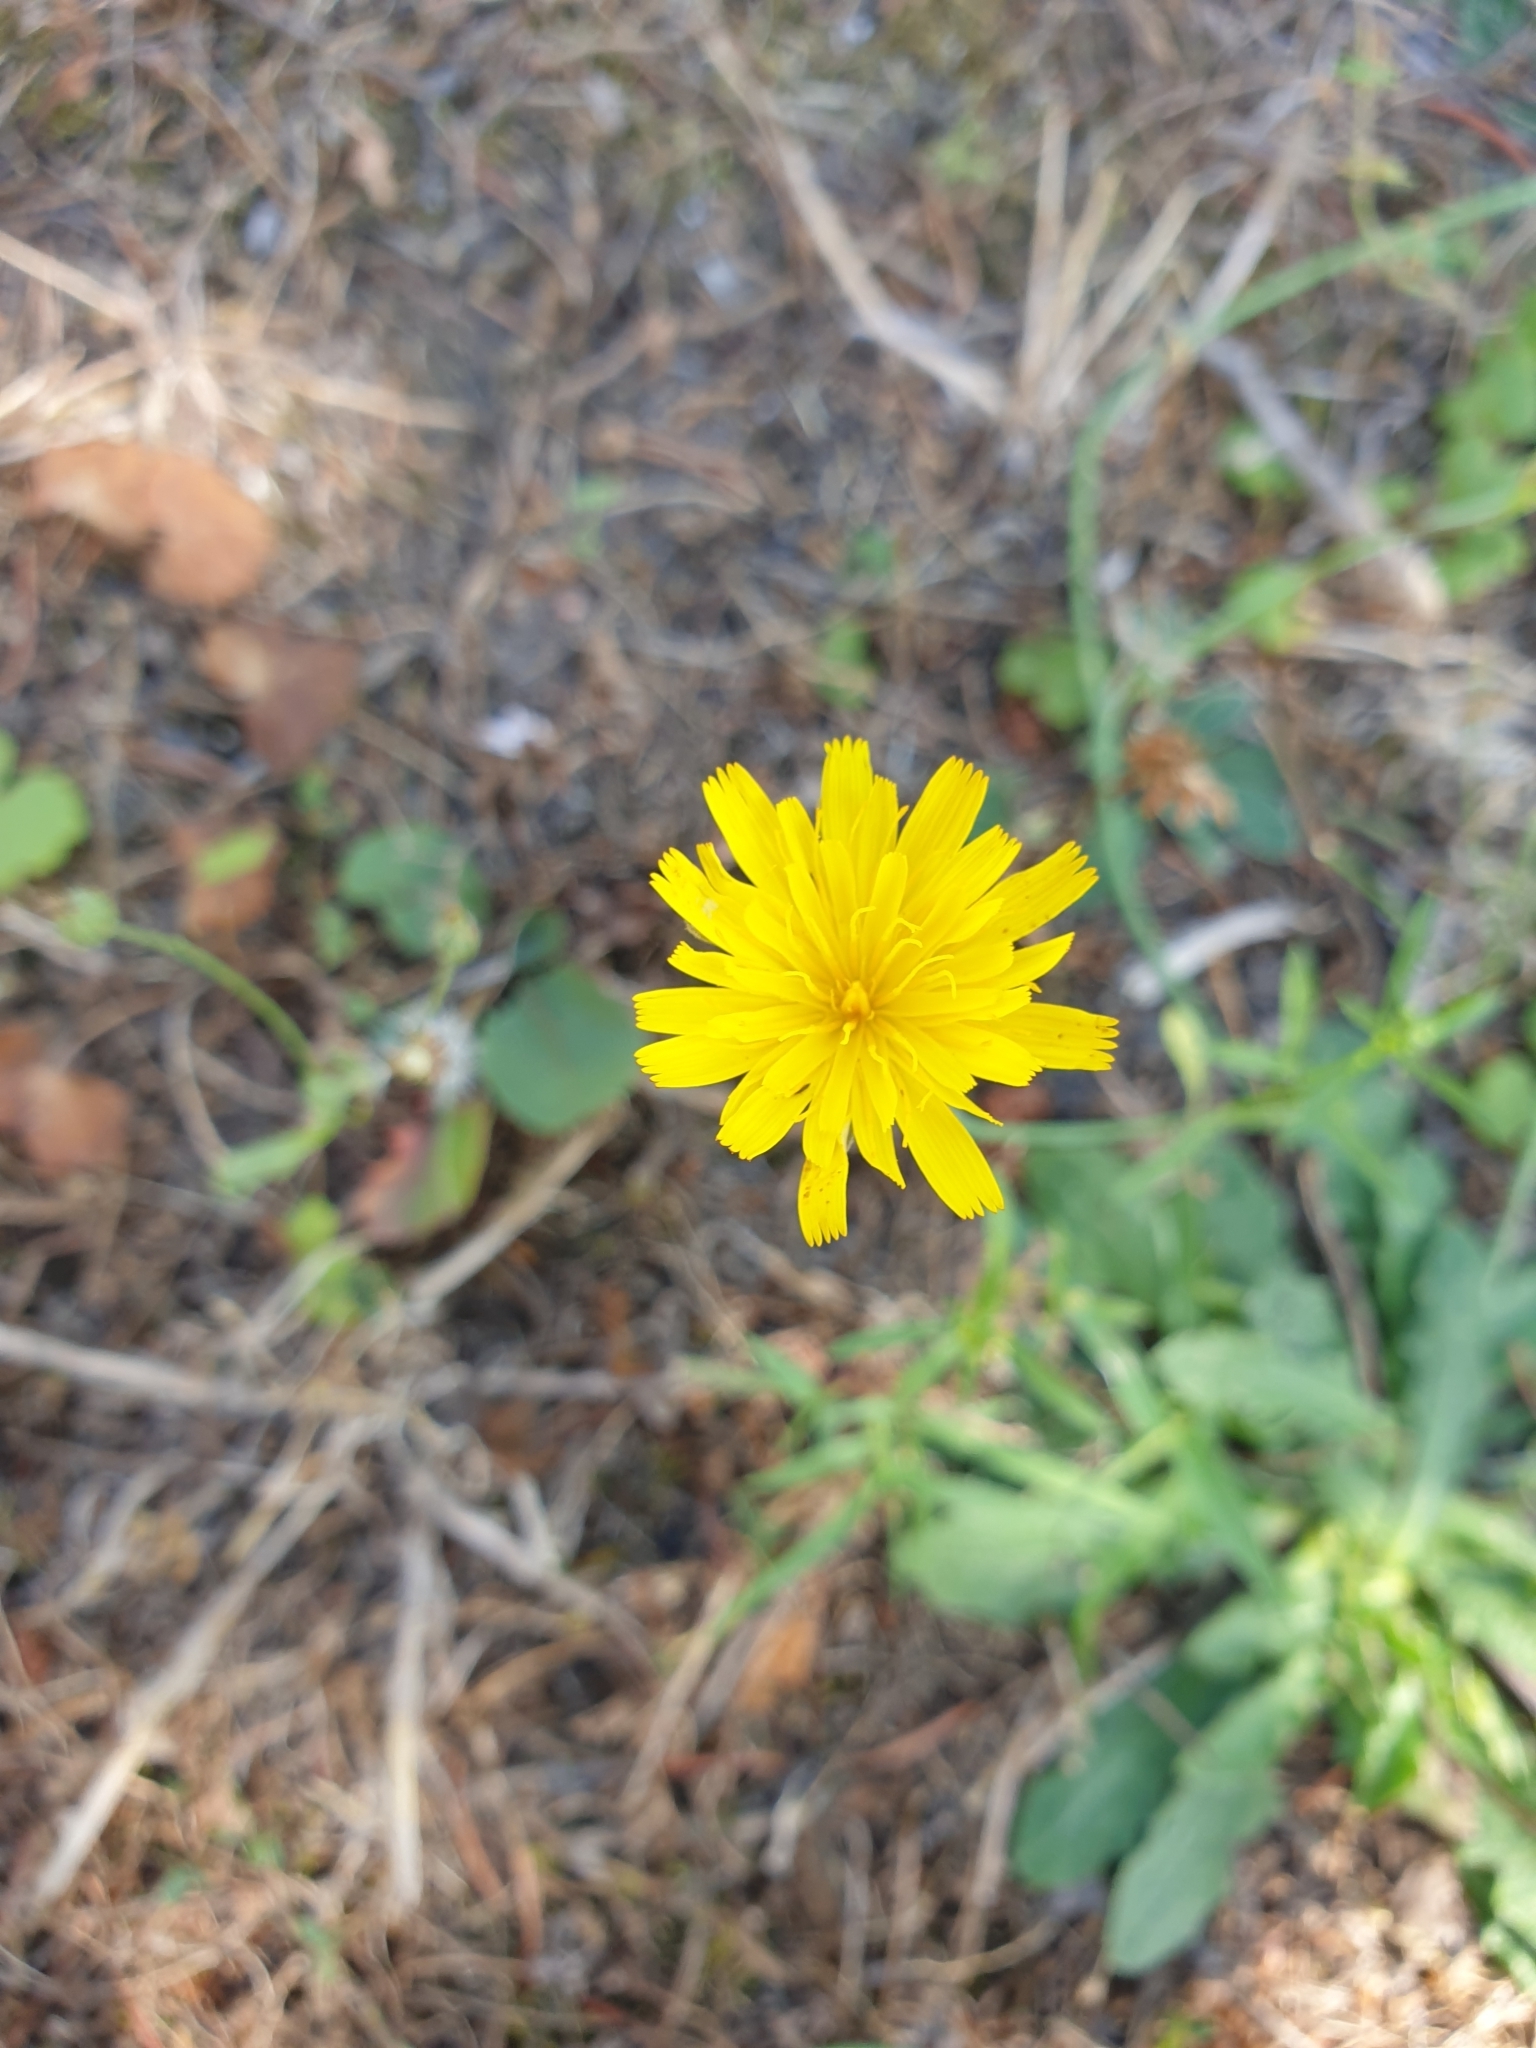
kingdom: Plantae
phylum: Tracheophyta
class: Magnoliopsida
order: Asterales
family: Asteraceae
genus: Hypochaeris
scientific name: Hypochaeris radicata
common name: Flatweed
